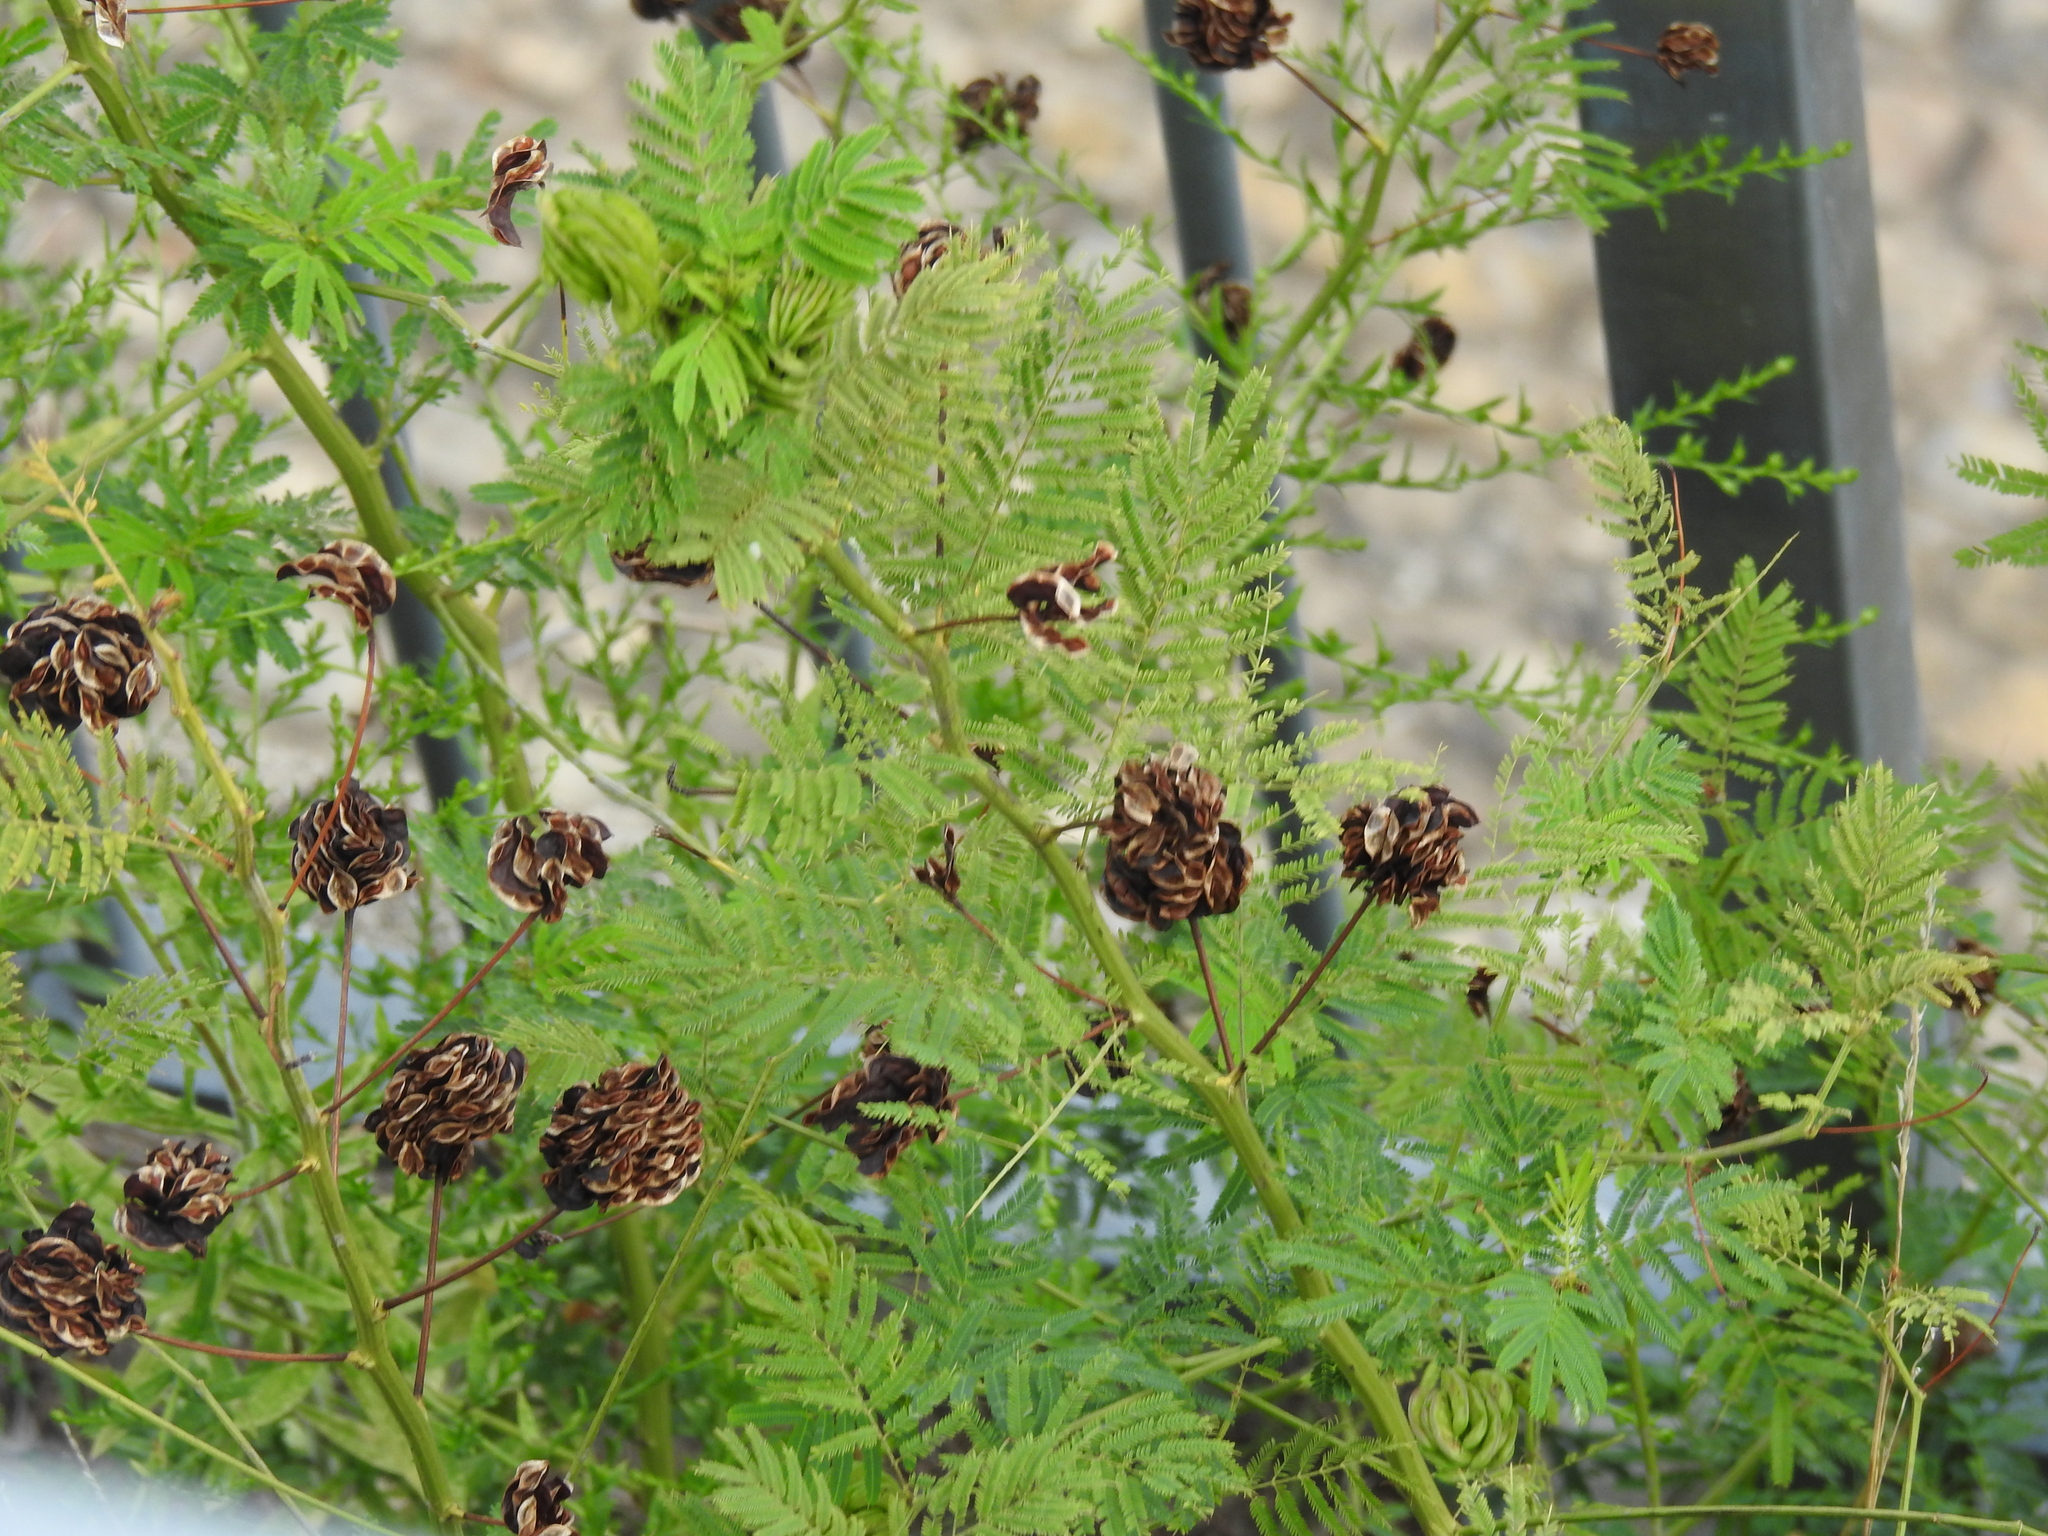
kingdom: Plantae
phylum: Tracheophyta
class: Magnoliopsida
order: Fabales
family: Fabaceae
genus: Desmanthus
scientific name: Desmanthus illinoensis
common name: Illinois bundle-flower
